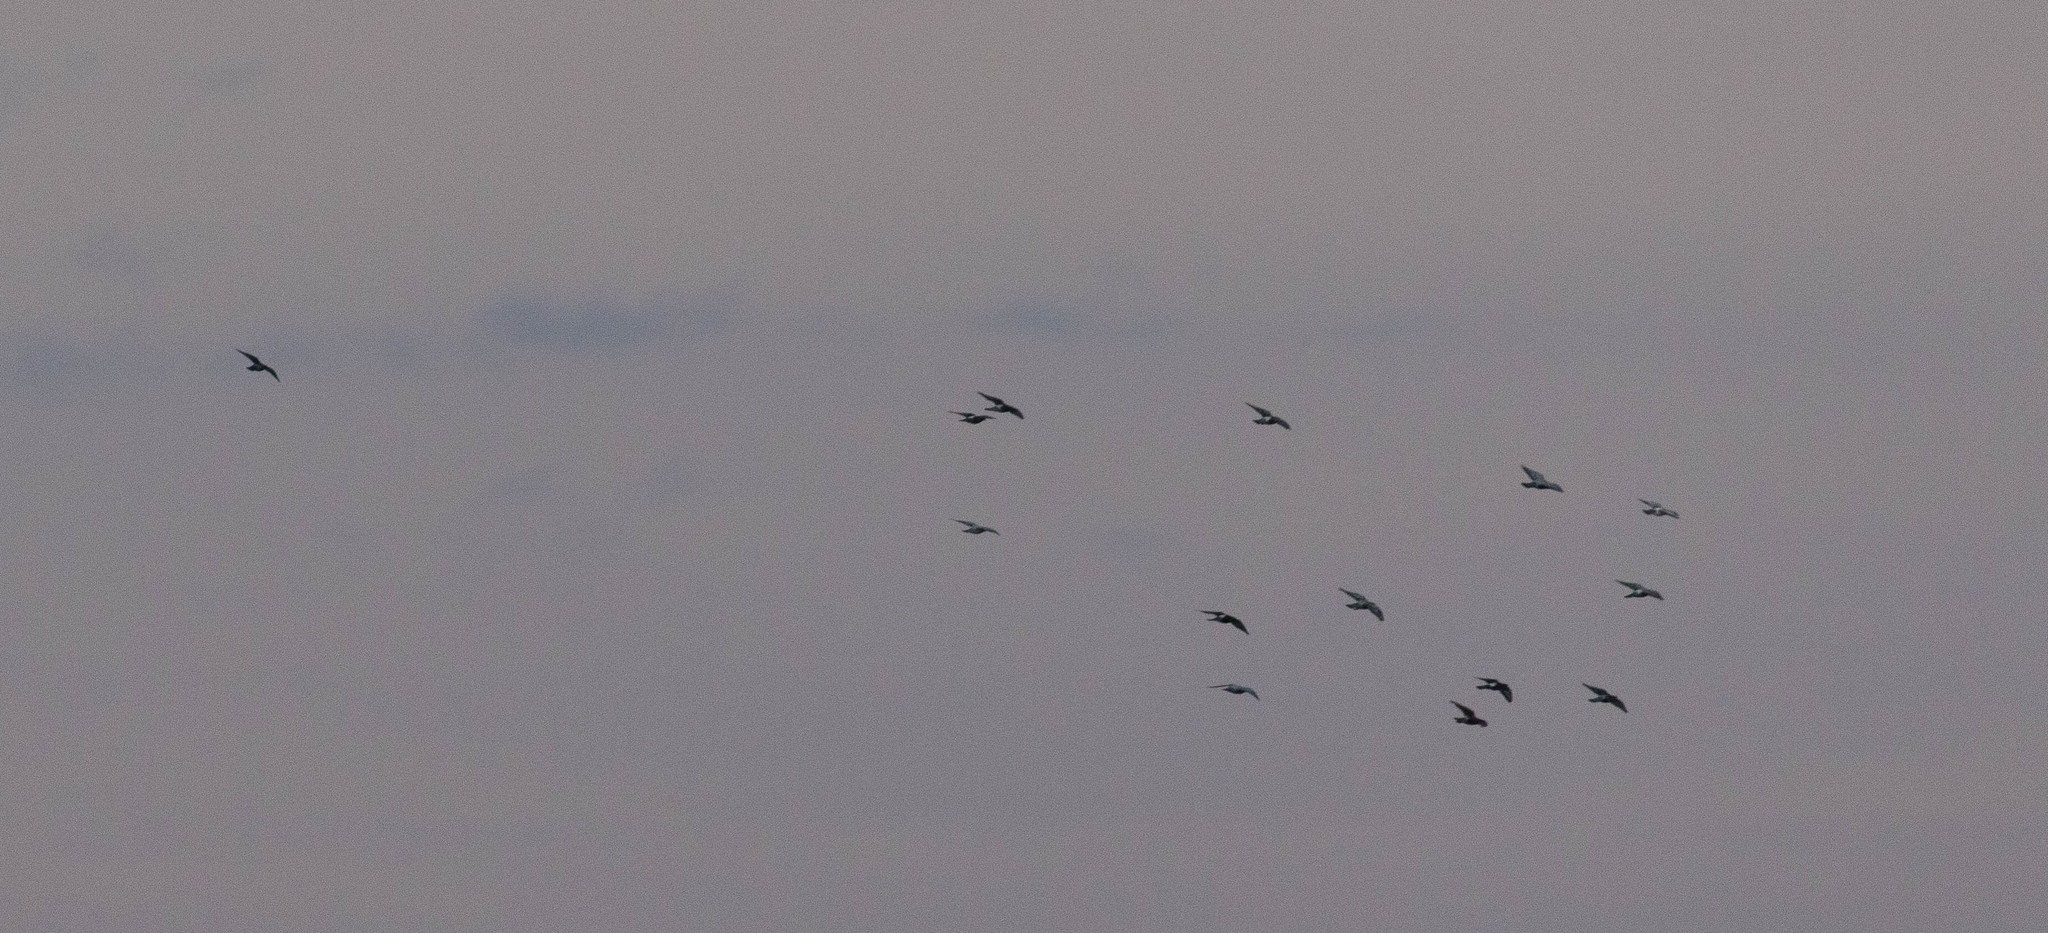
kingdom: Animalia
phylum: Chordata
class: Aves
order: Columbiformes
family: Columbidae
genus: Columba
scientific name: Columba livia
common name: Rock pigeon
